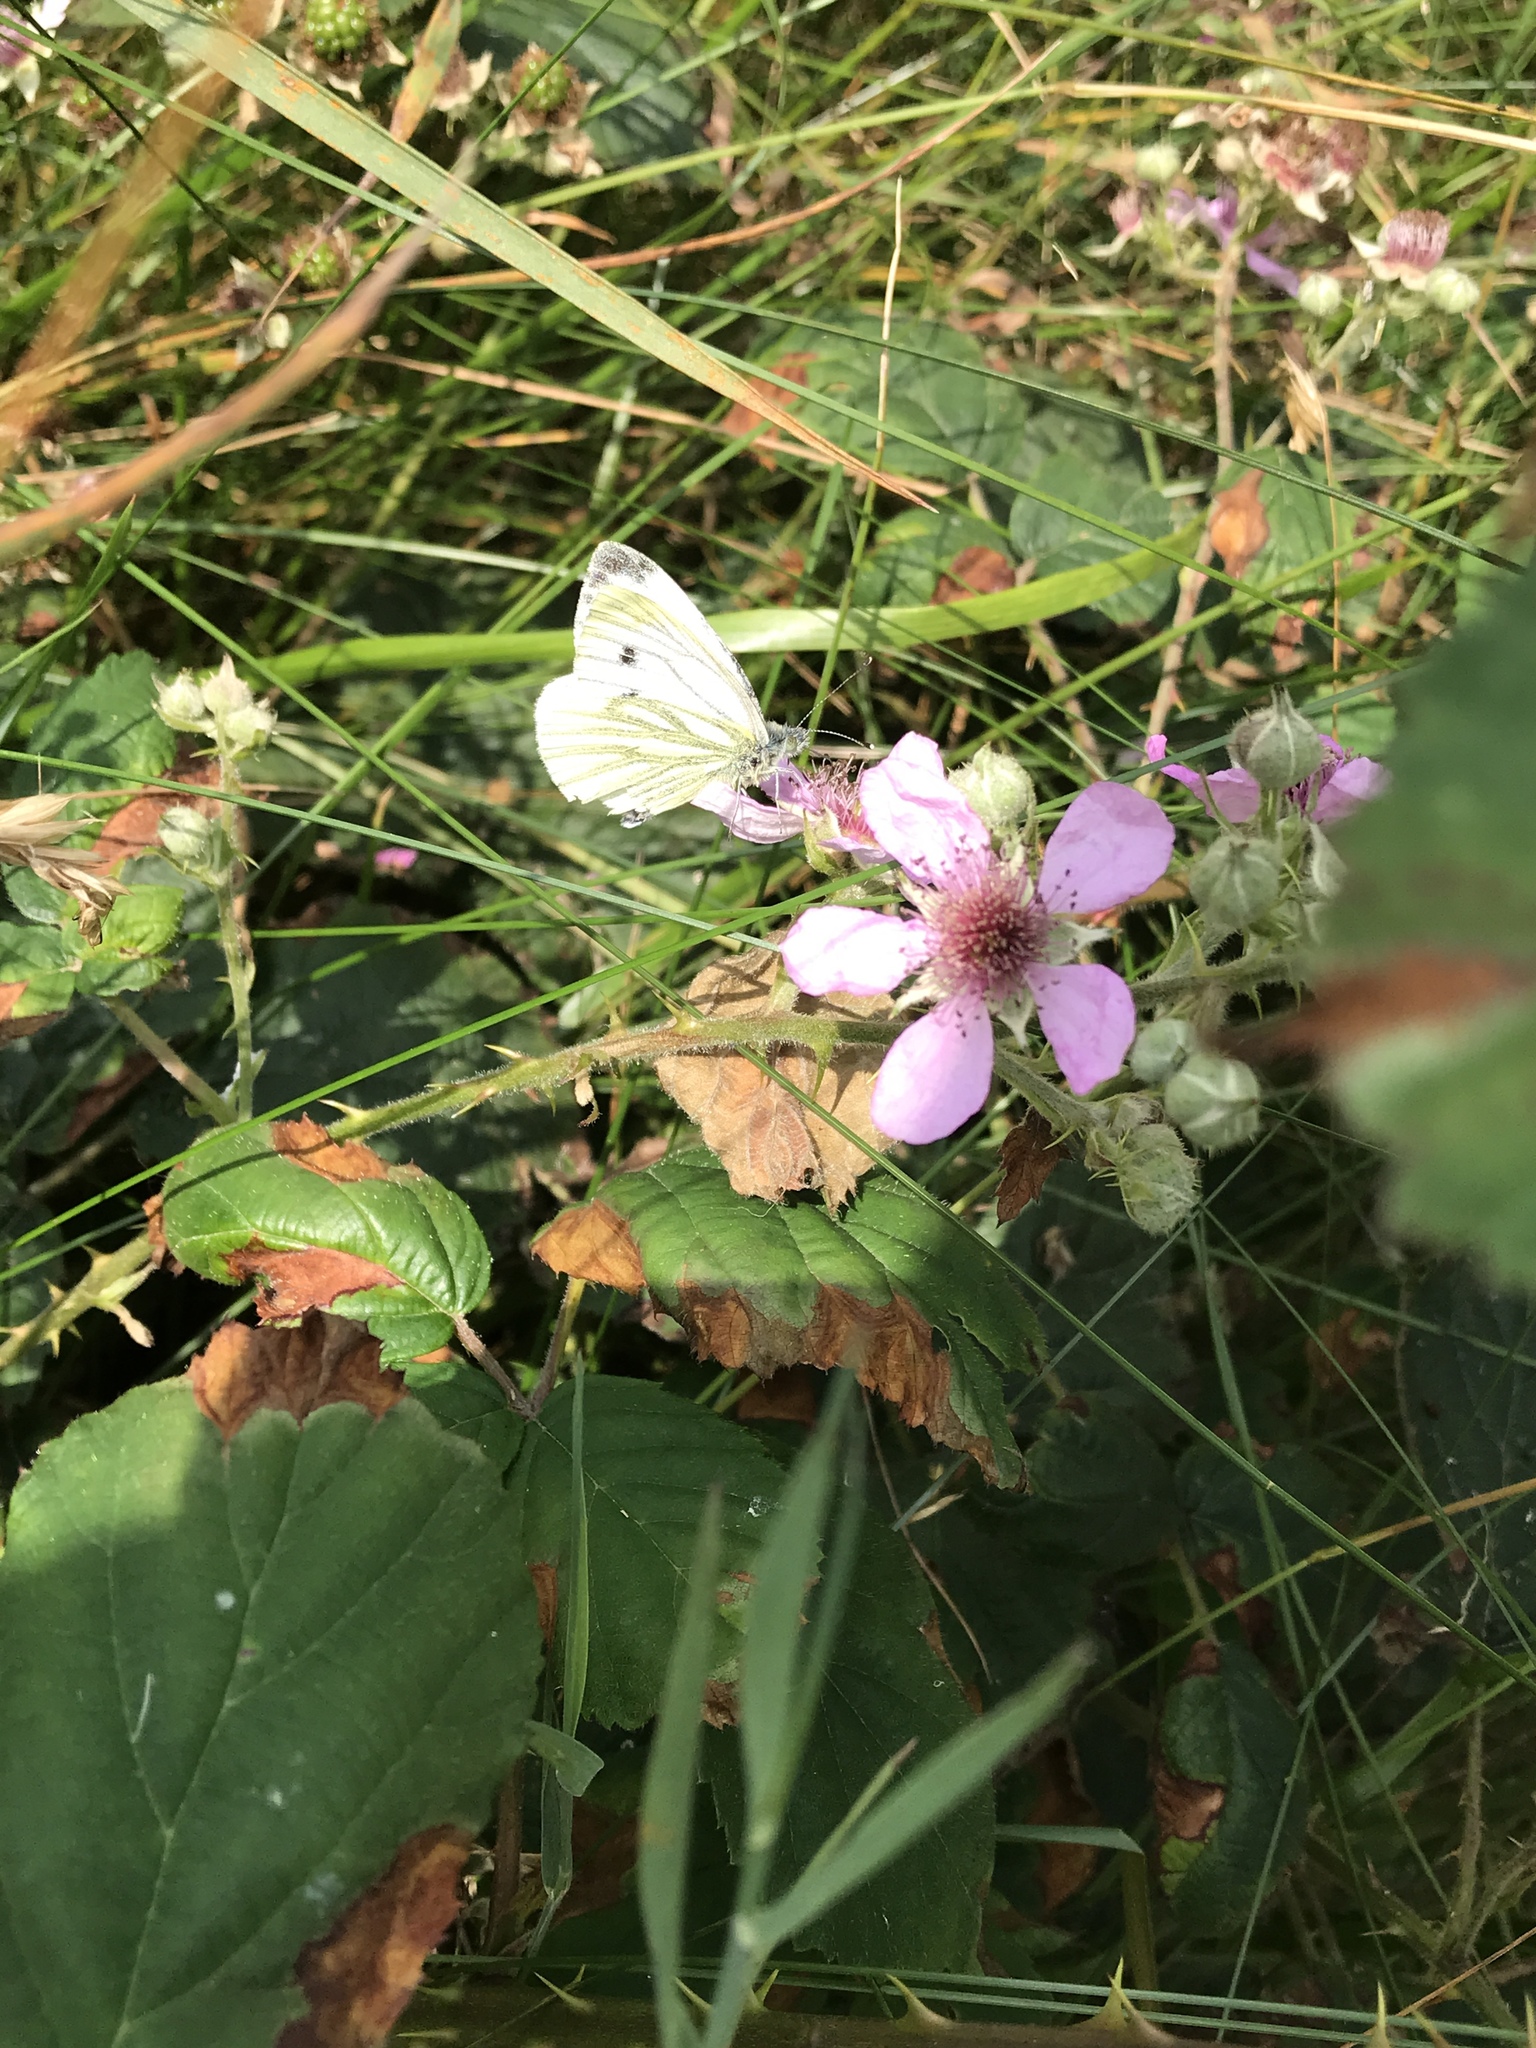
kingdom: Animalia
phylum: Arthropoda
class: Insecta
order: Lepidoptera
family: Pieridae
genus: Pieris
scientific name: Pieris napi
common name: Green-veined white
